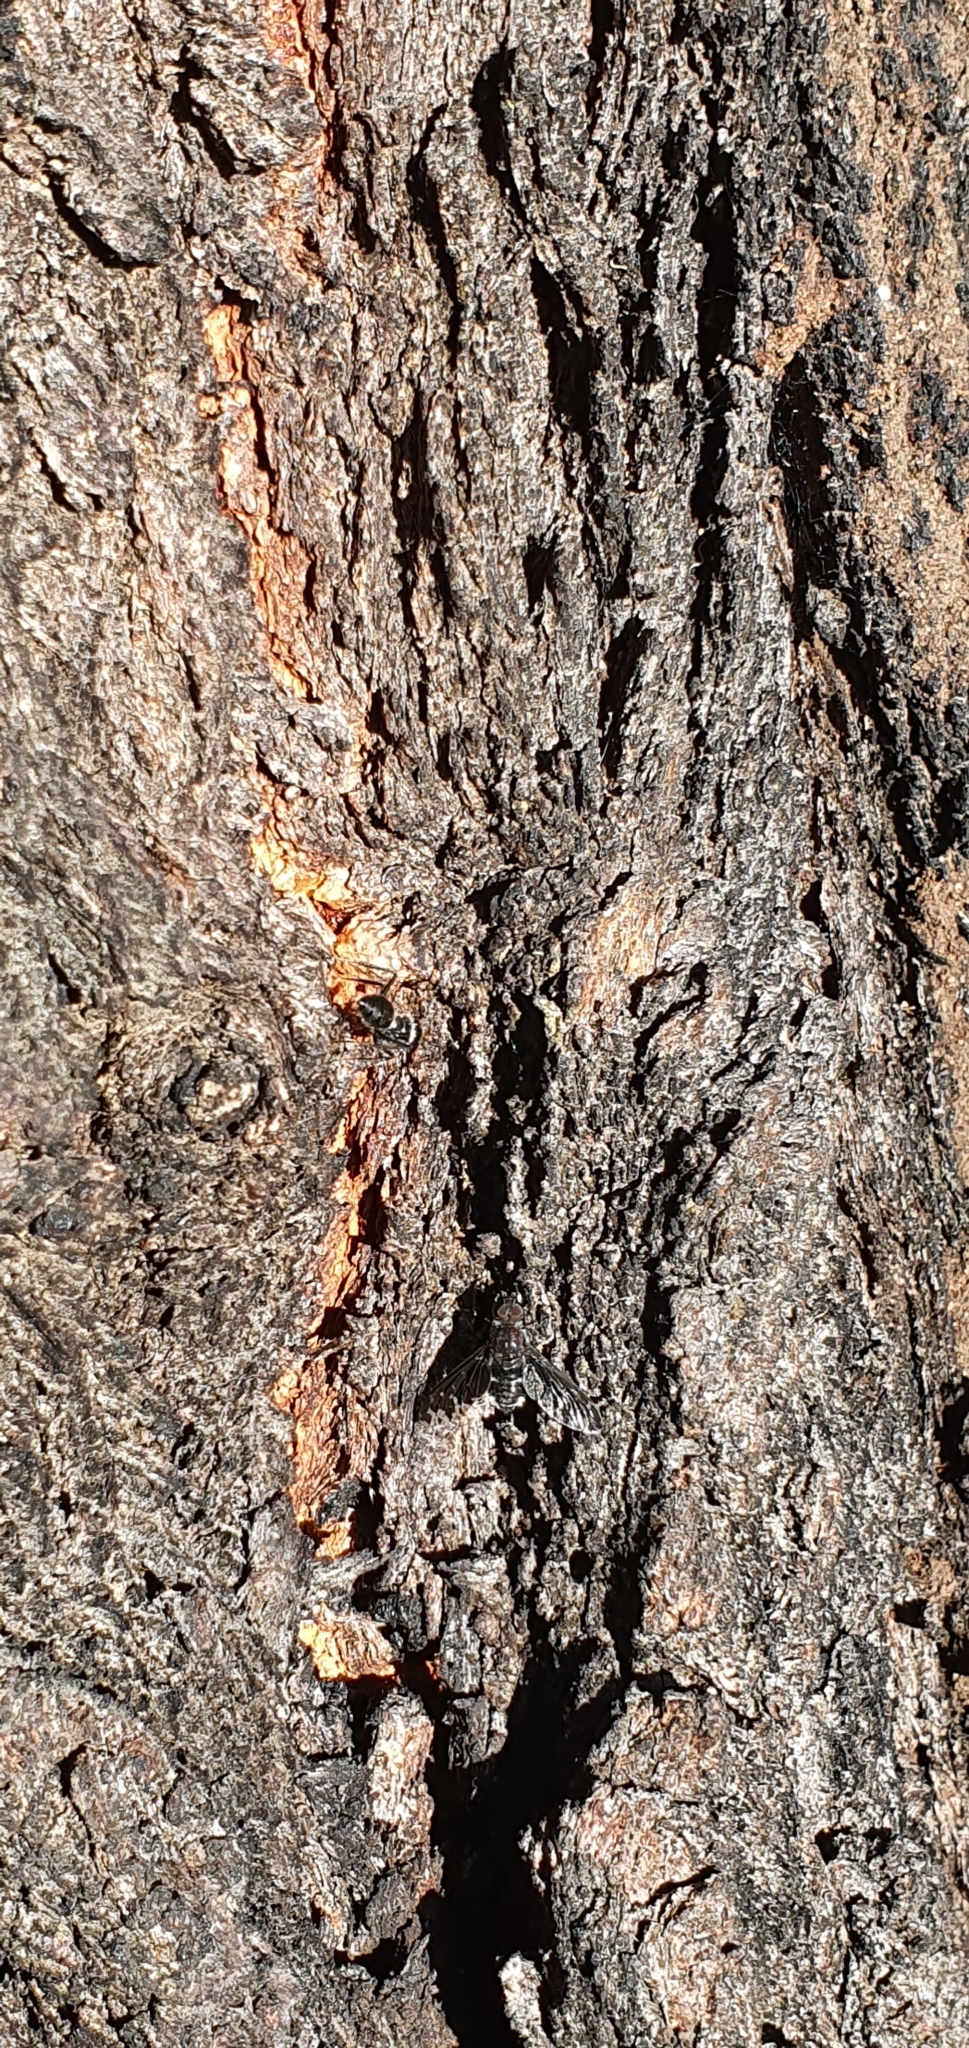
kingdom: Animalia
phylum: Arthropoda
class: Insecta
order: Diptera
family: Bombyliidae
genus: Anthrax
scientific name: Anthrax maculata
